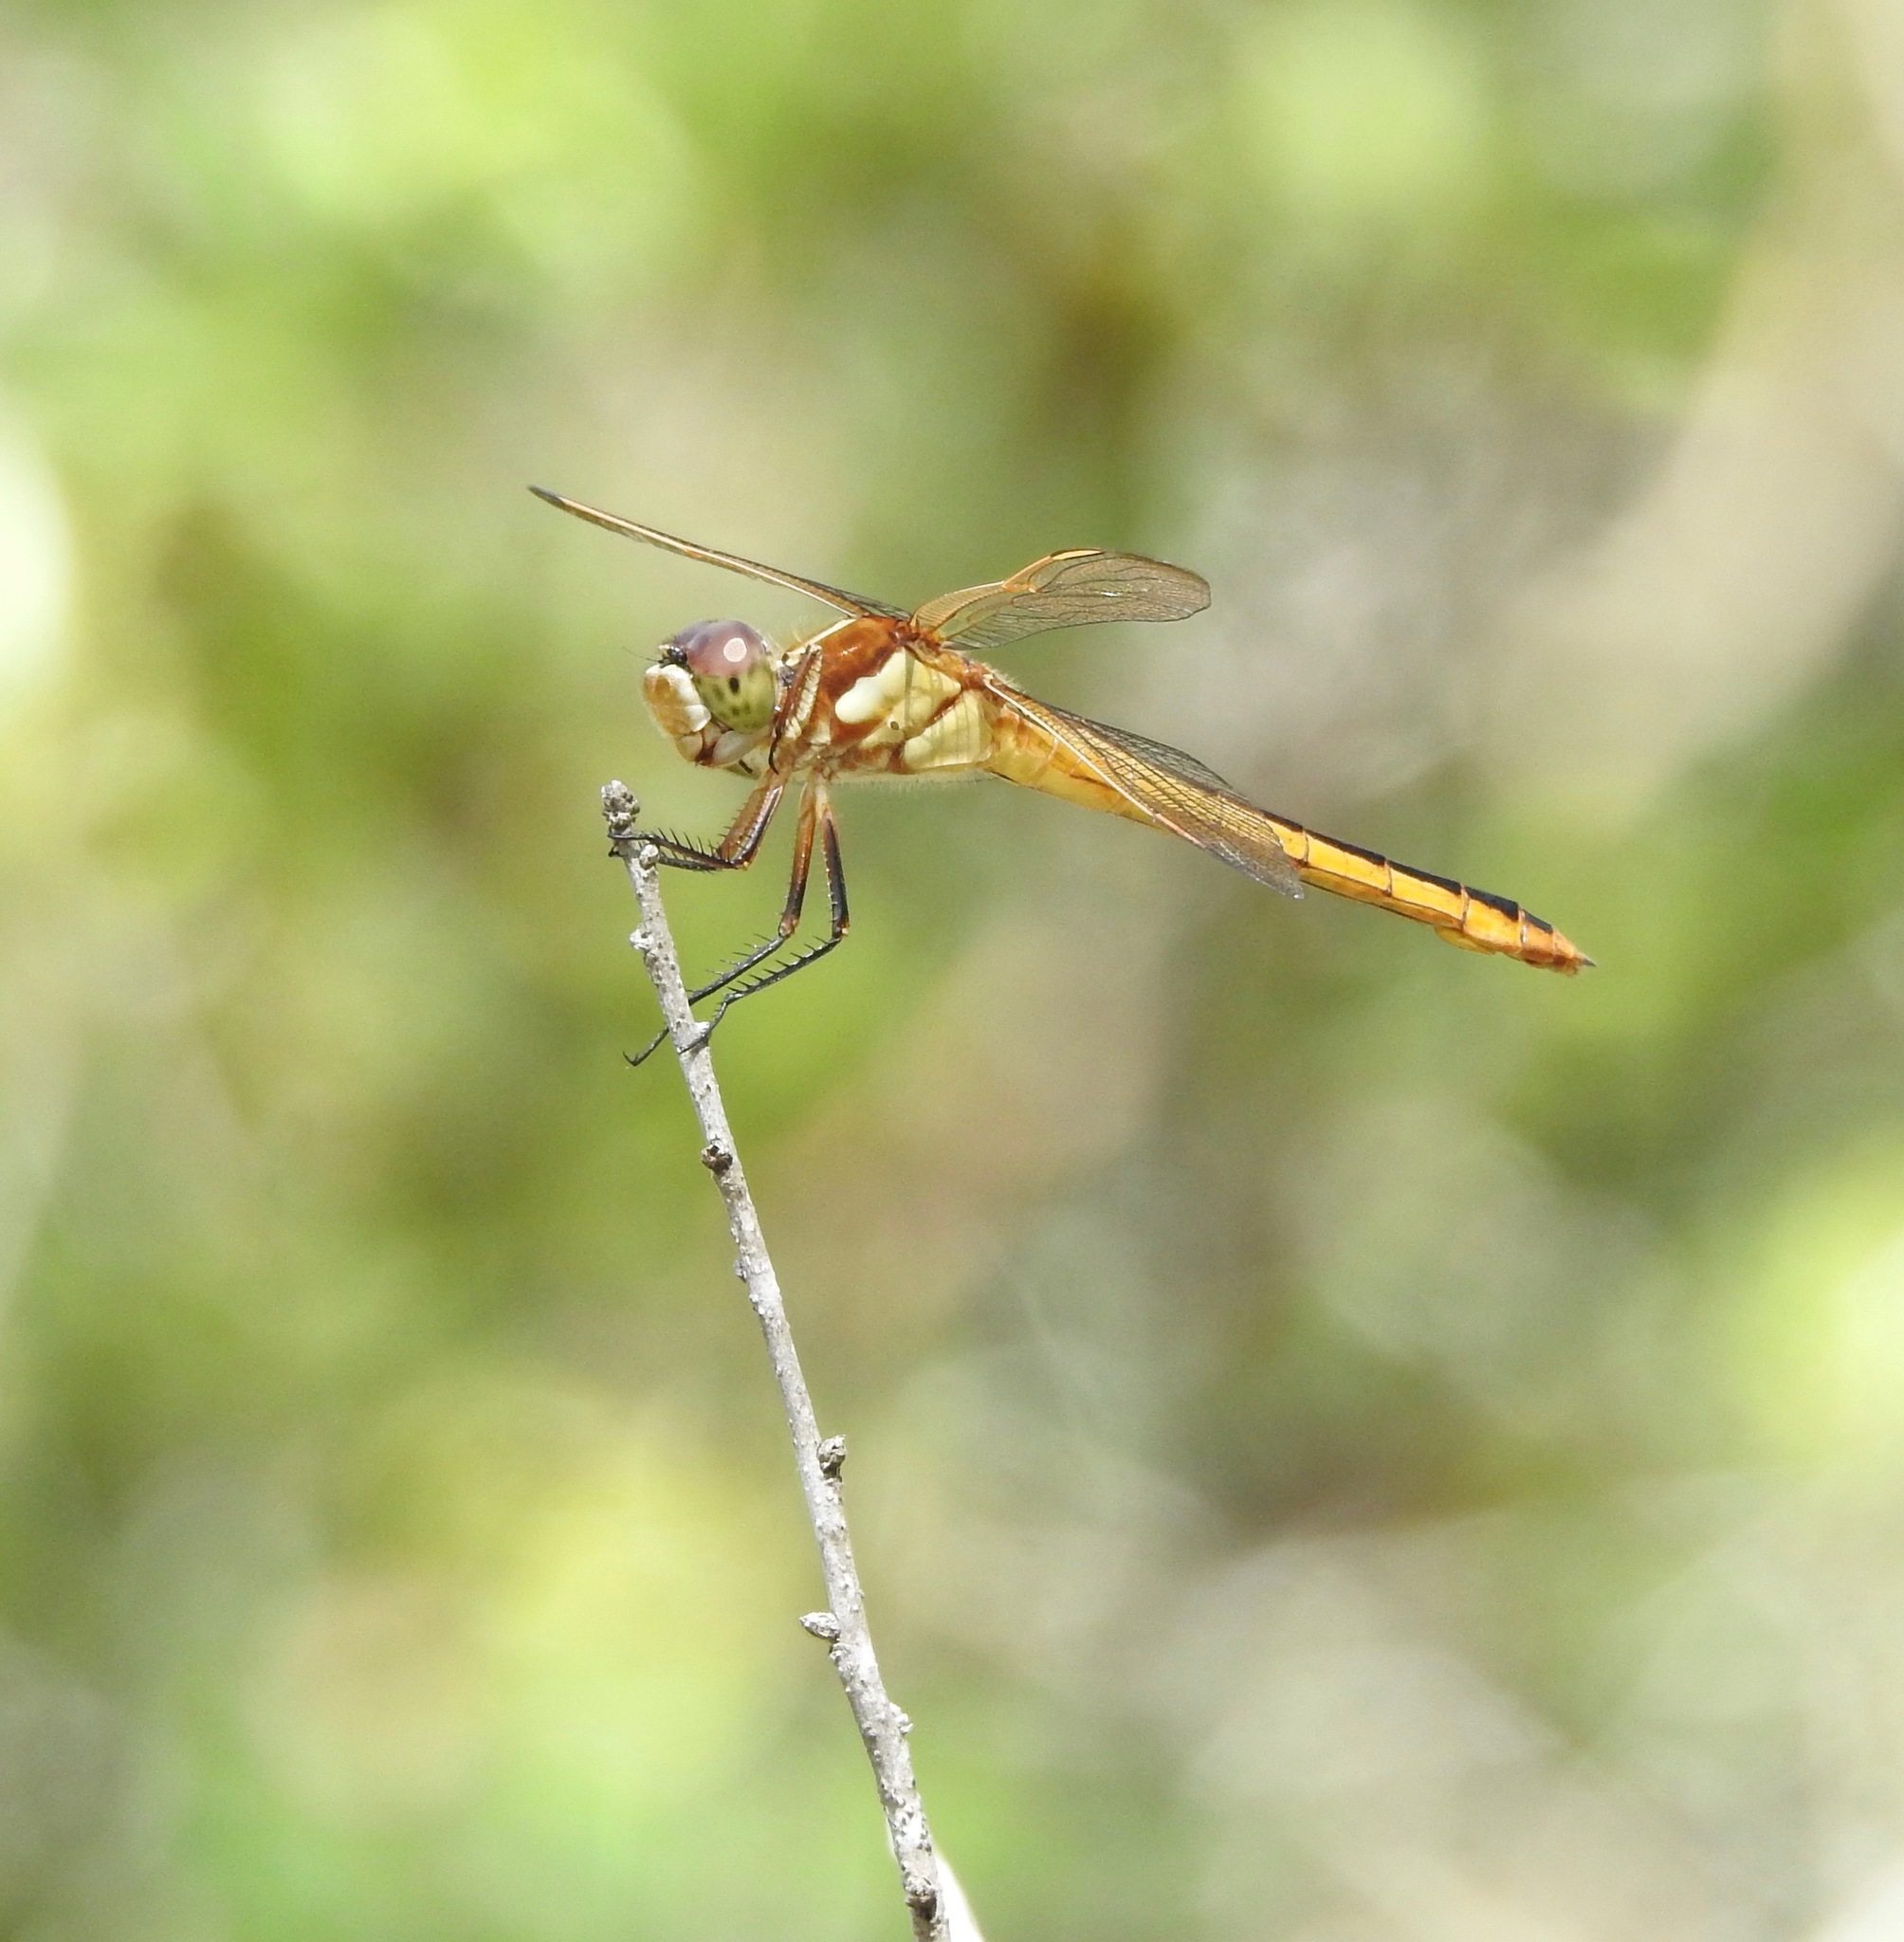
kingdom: Animalia
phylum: Arthropoda
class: Insecta
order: Odonata
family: Libellulidae
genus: Libellula
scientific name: Libellula auripennis
